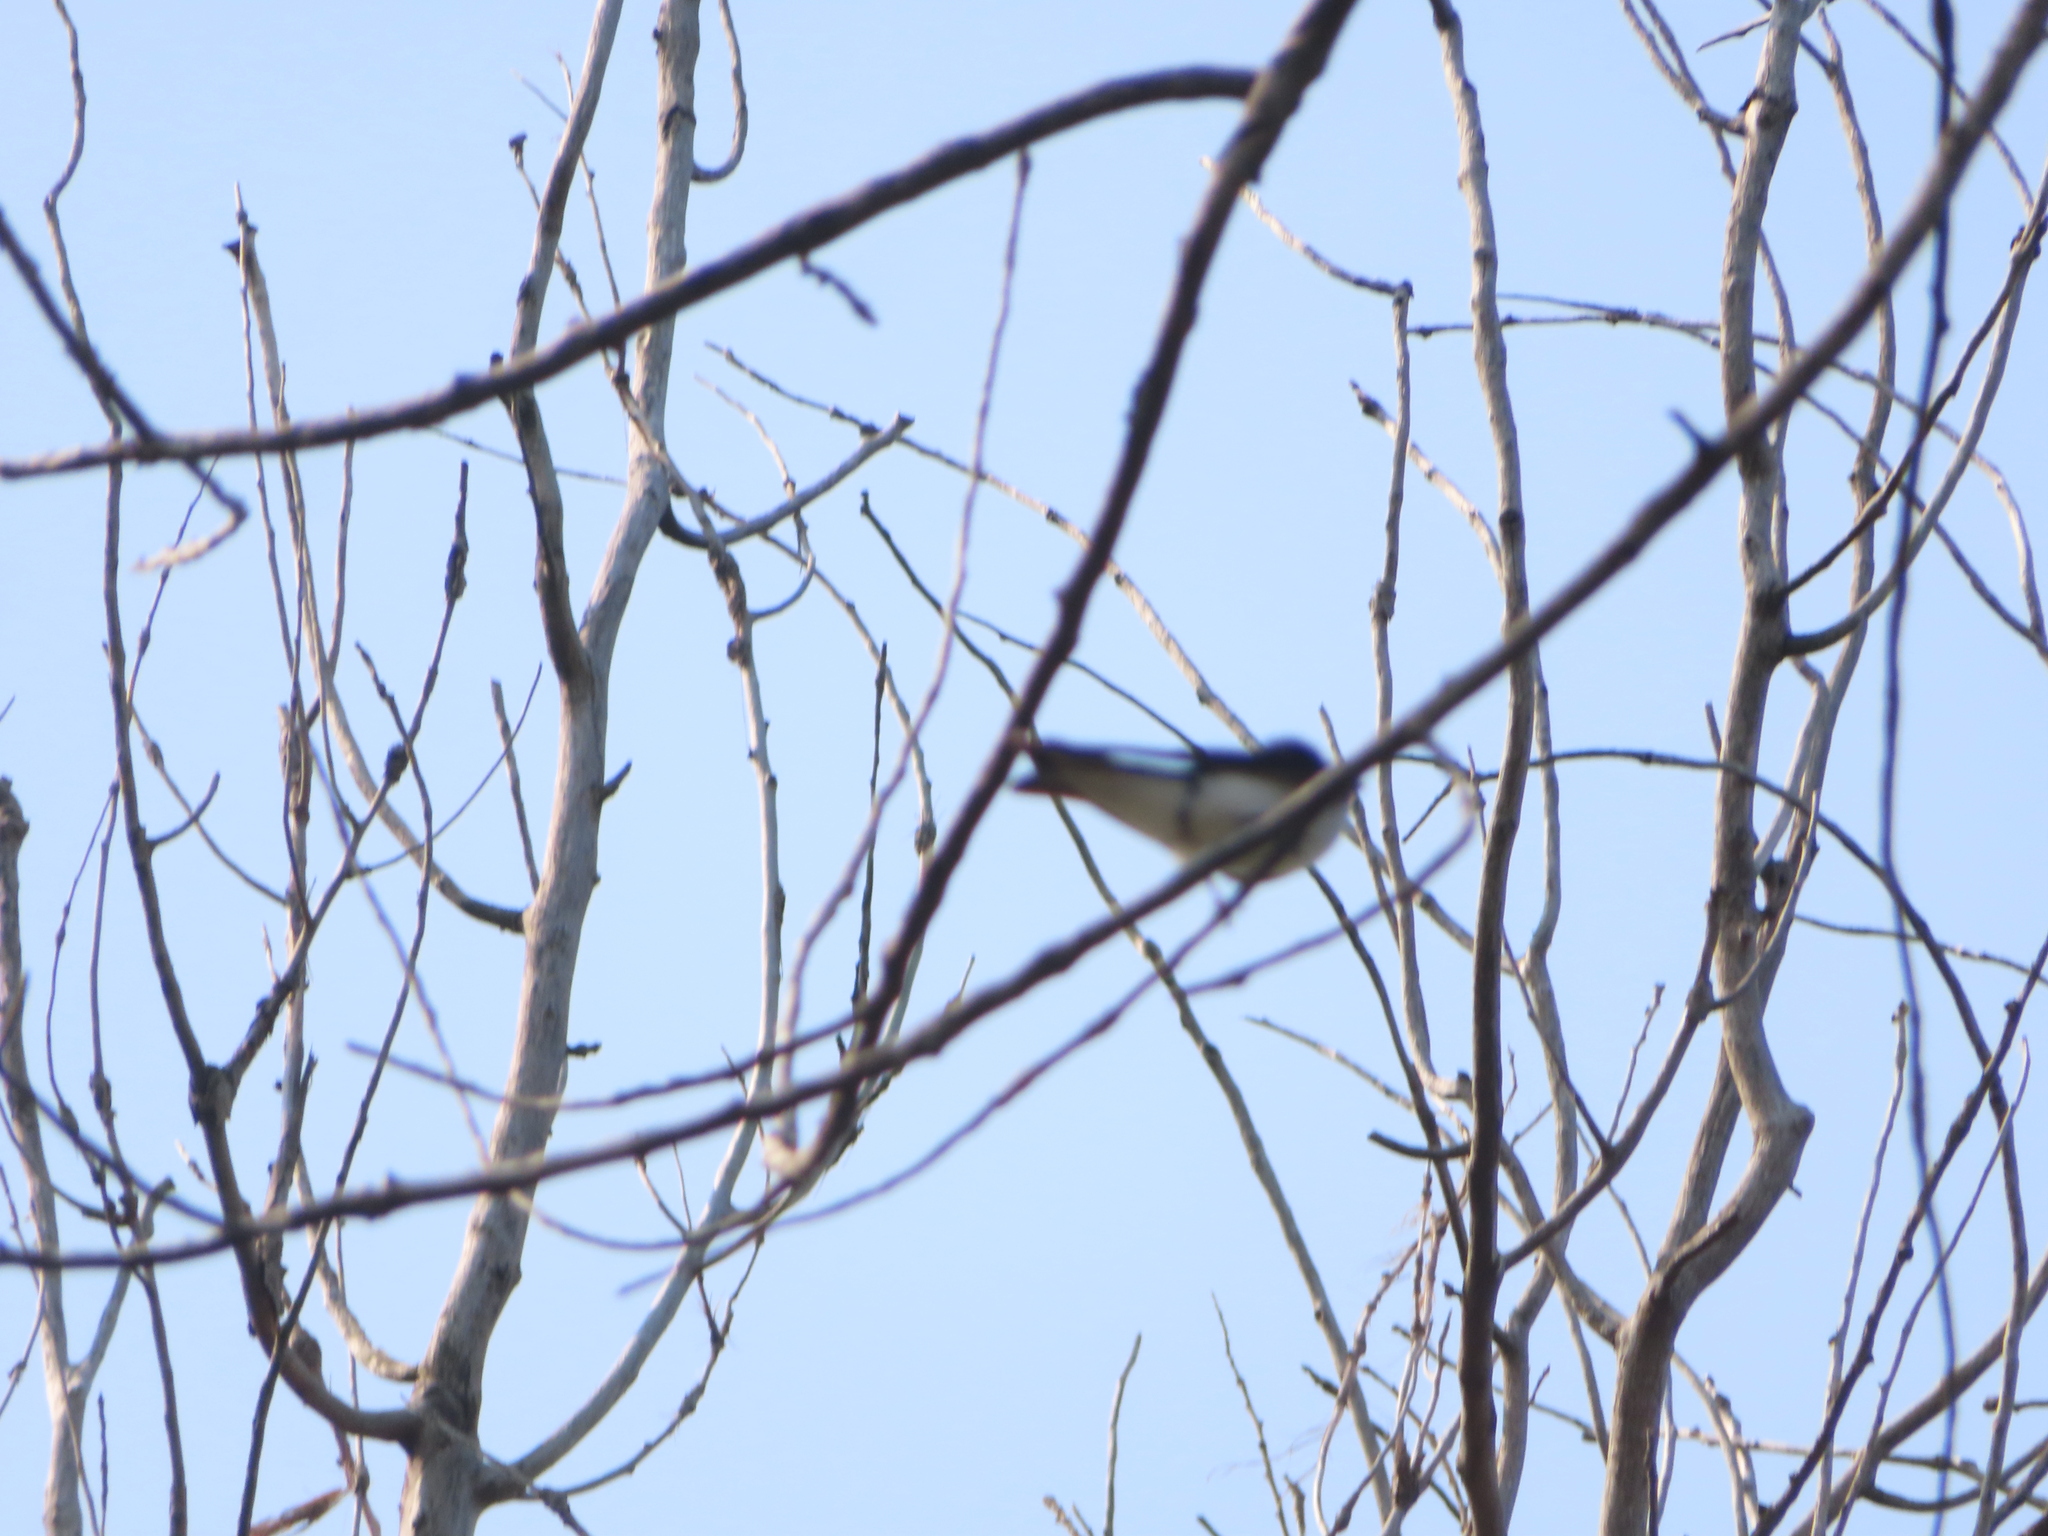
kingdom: Animalia
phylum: Chordata
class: Aves
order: Passeriformes
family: Hirundinidae
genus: Tachycineta
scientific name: Tachycineta bicolor
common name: Tree swallow
